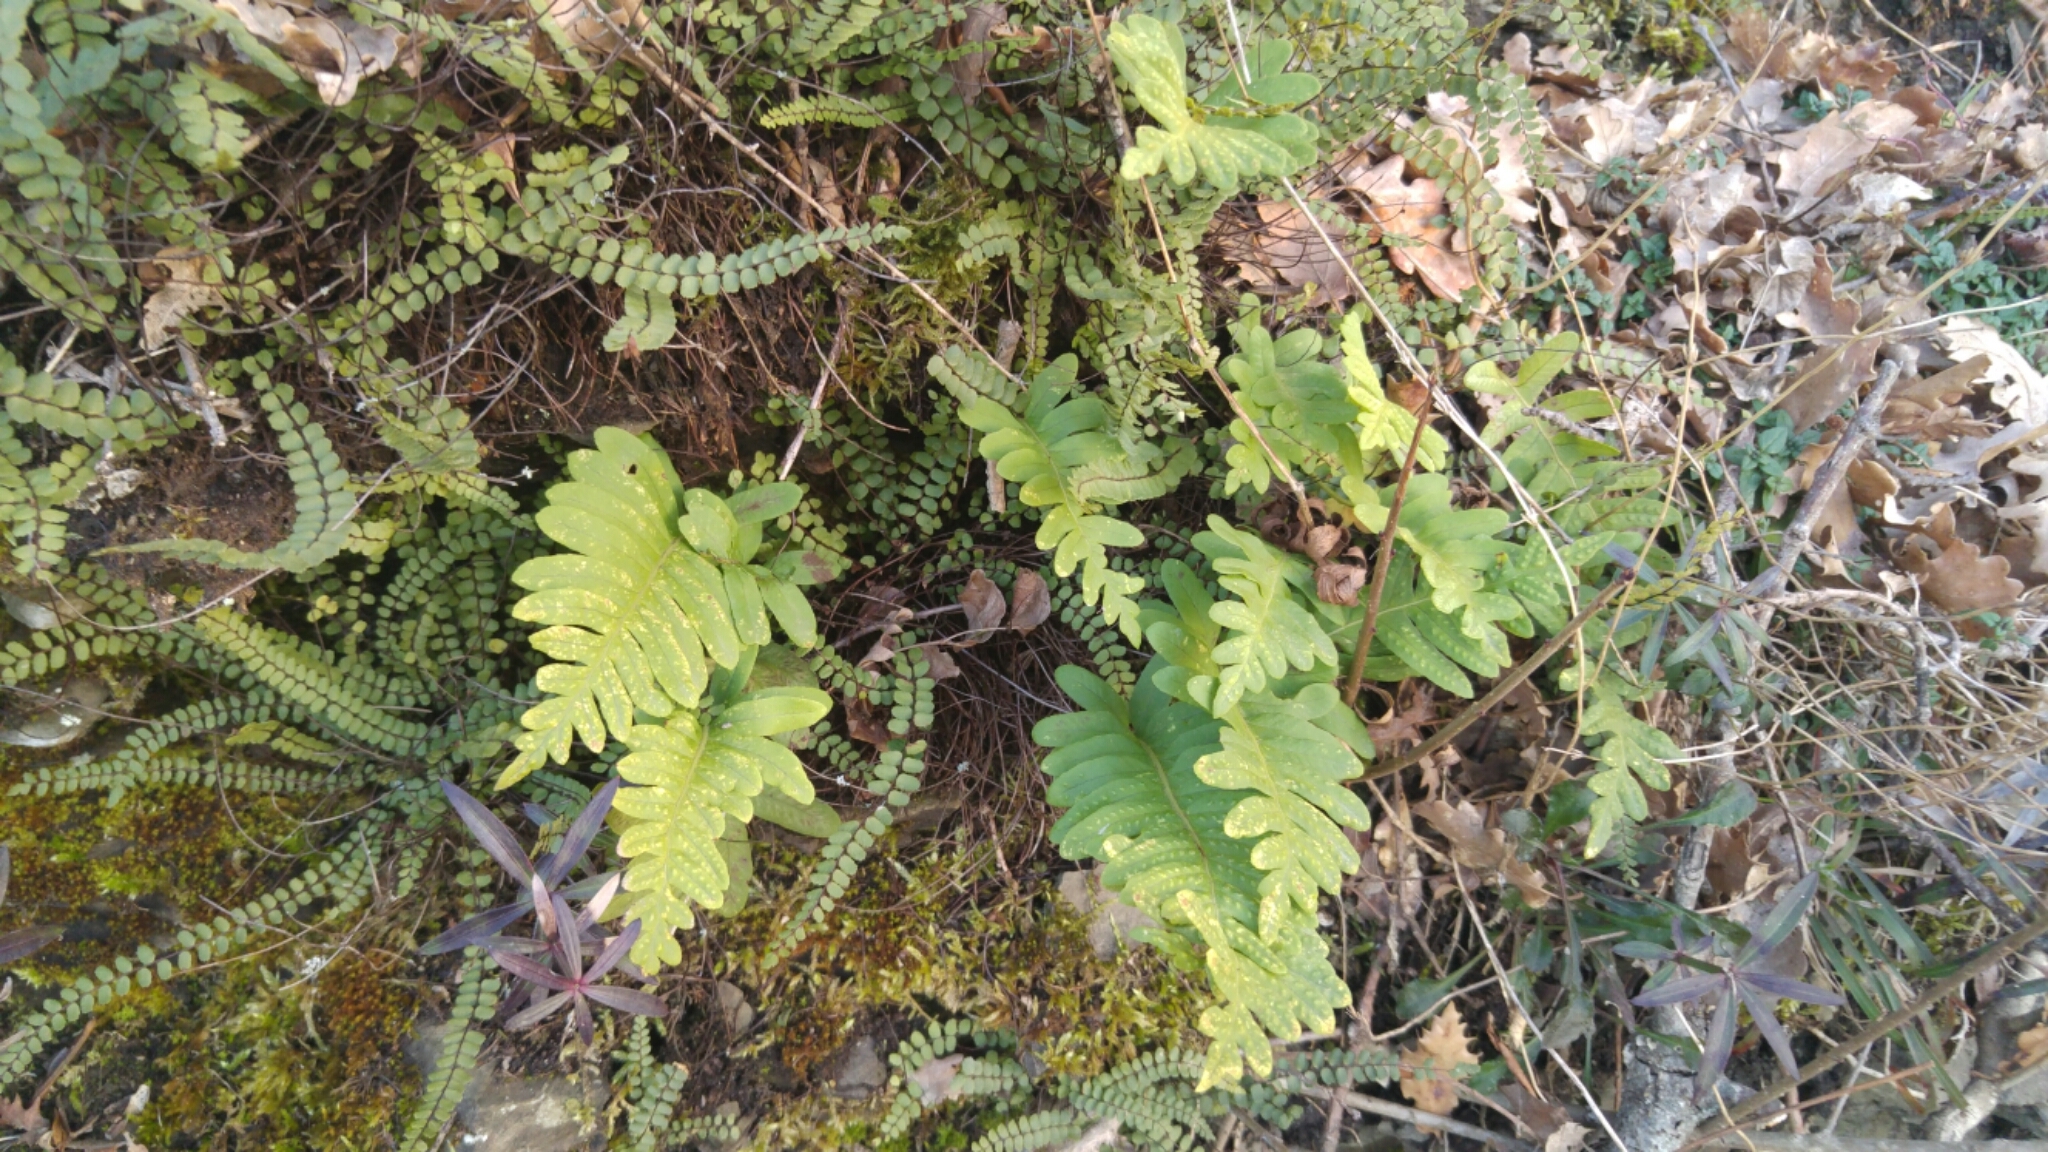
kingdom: Plantae
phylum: Tracheophyta
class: Polypodiopsida
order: Polypodiales
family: Polypodiaceae
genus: Polypodium
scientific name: Polypodium vulgare
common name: Common polypody
